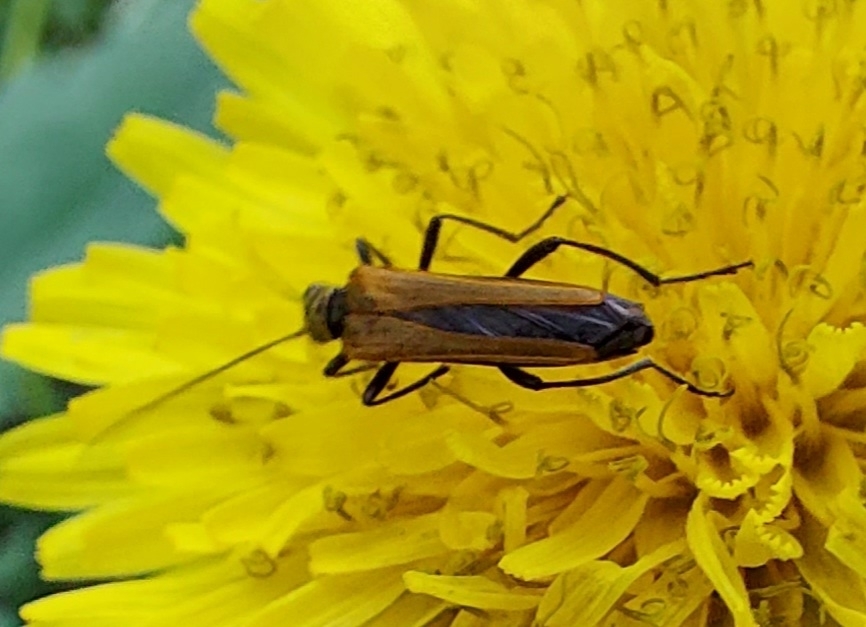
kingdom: Animalia
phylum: Arthropoda
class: Insecta
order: Coleoptera
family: Oedemeridae
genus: Oedemera
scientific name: Oedemera femorata
